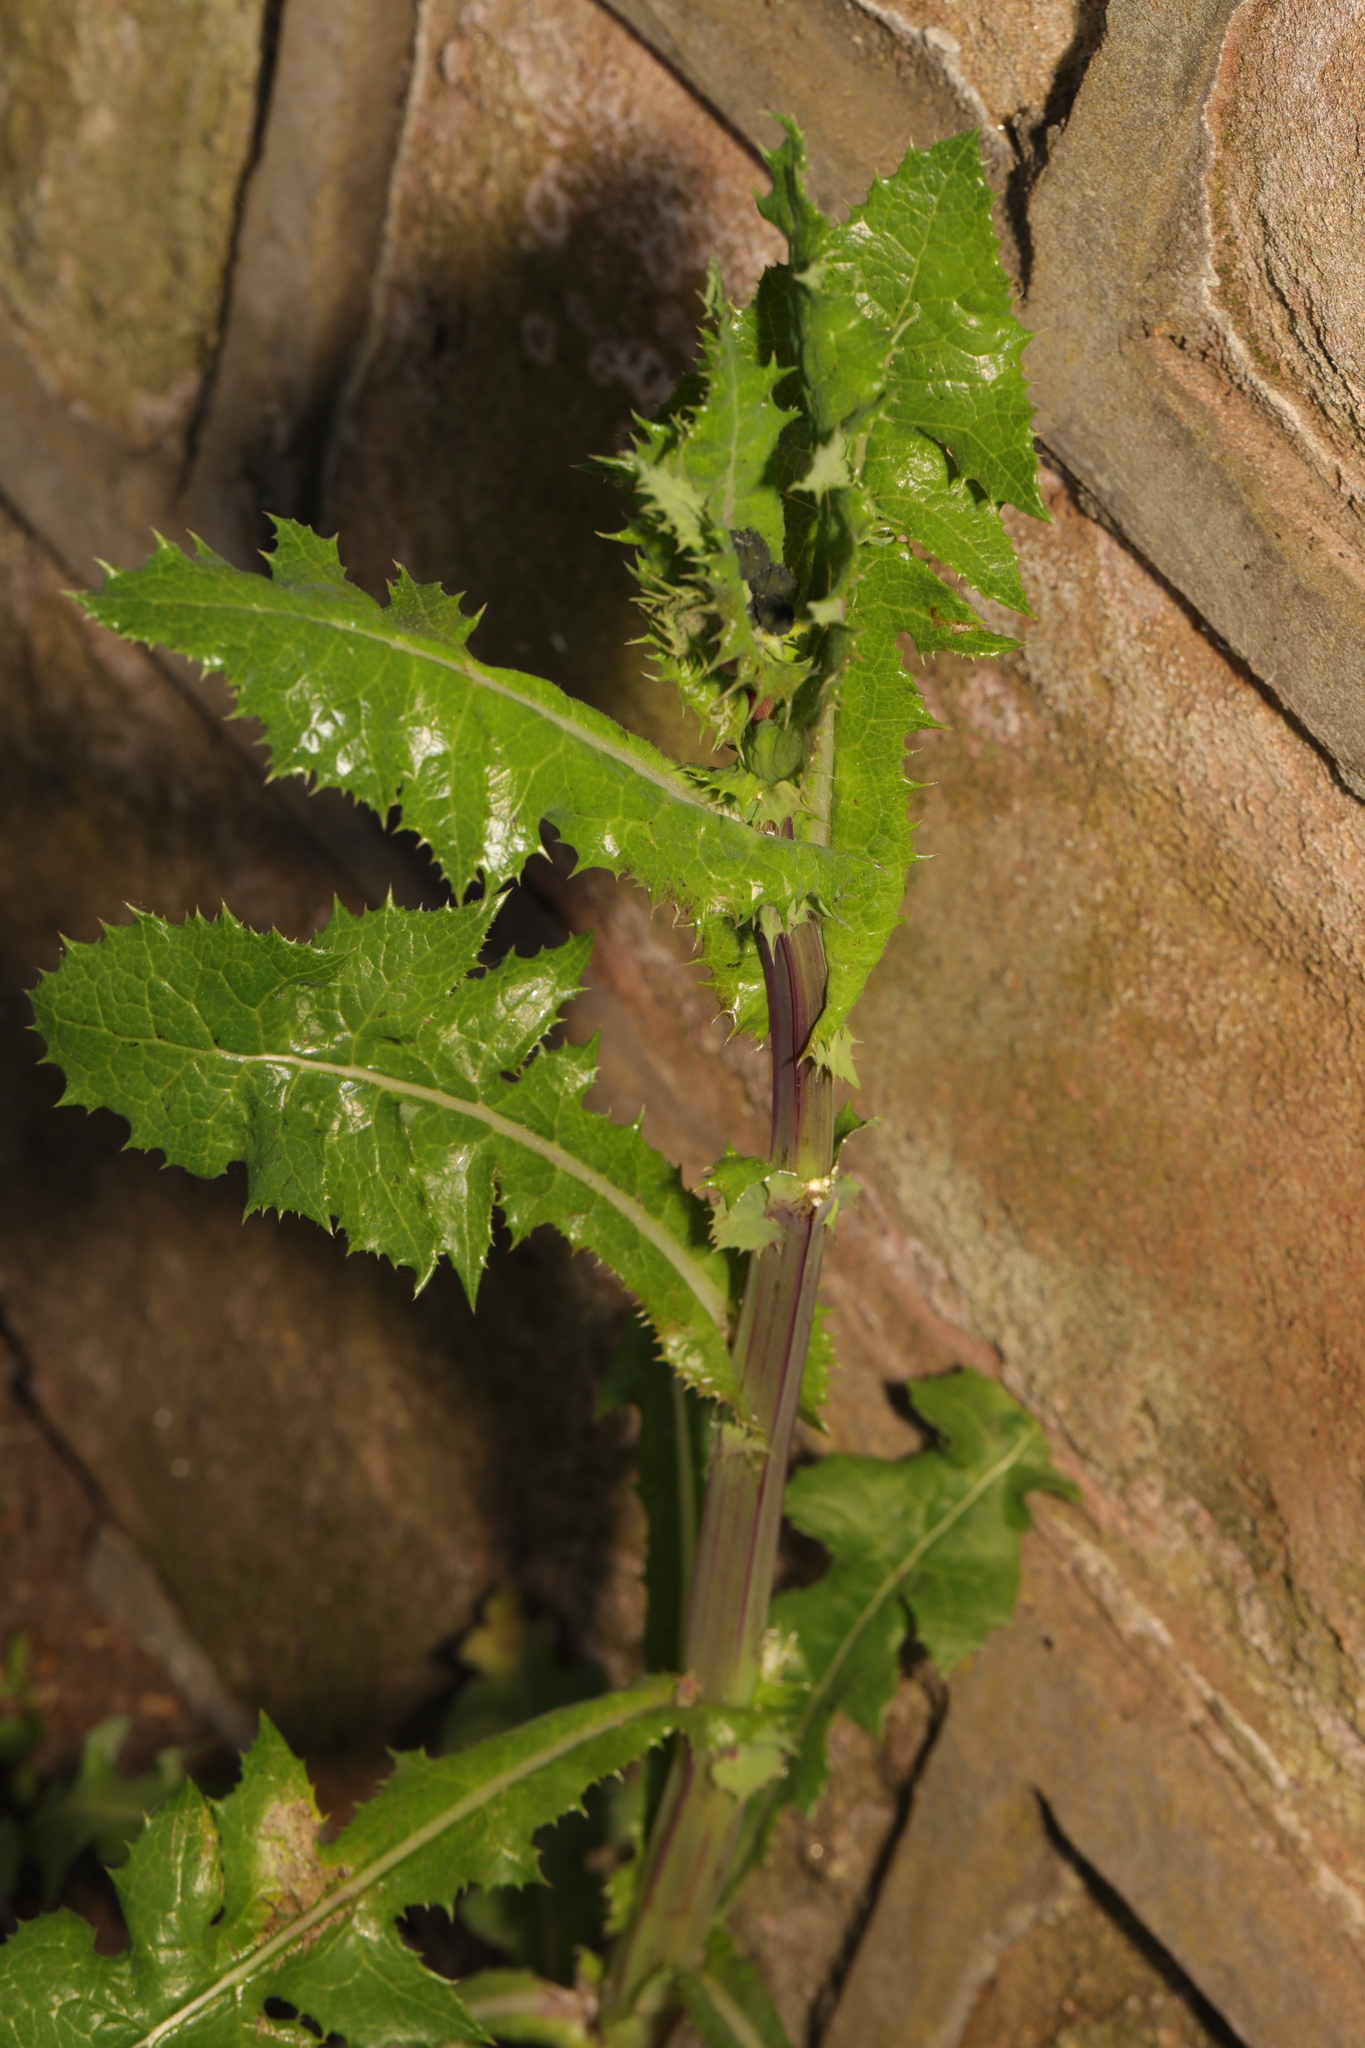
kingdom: Plantae
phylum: Tracheophyta
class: Magnoliopsida
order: Asterales
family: Asteraceae
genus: Sonchus
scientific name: Sonchus asper
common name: Prickly sow-thistle
